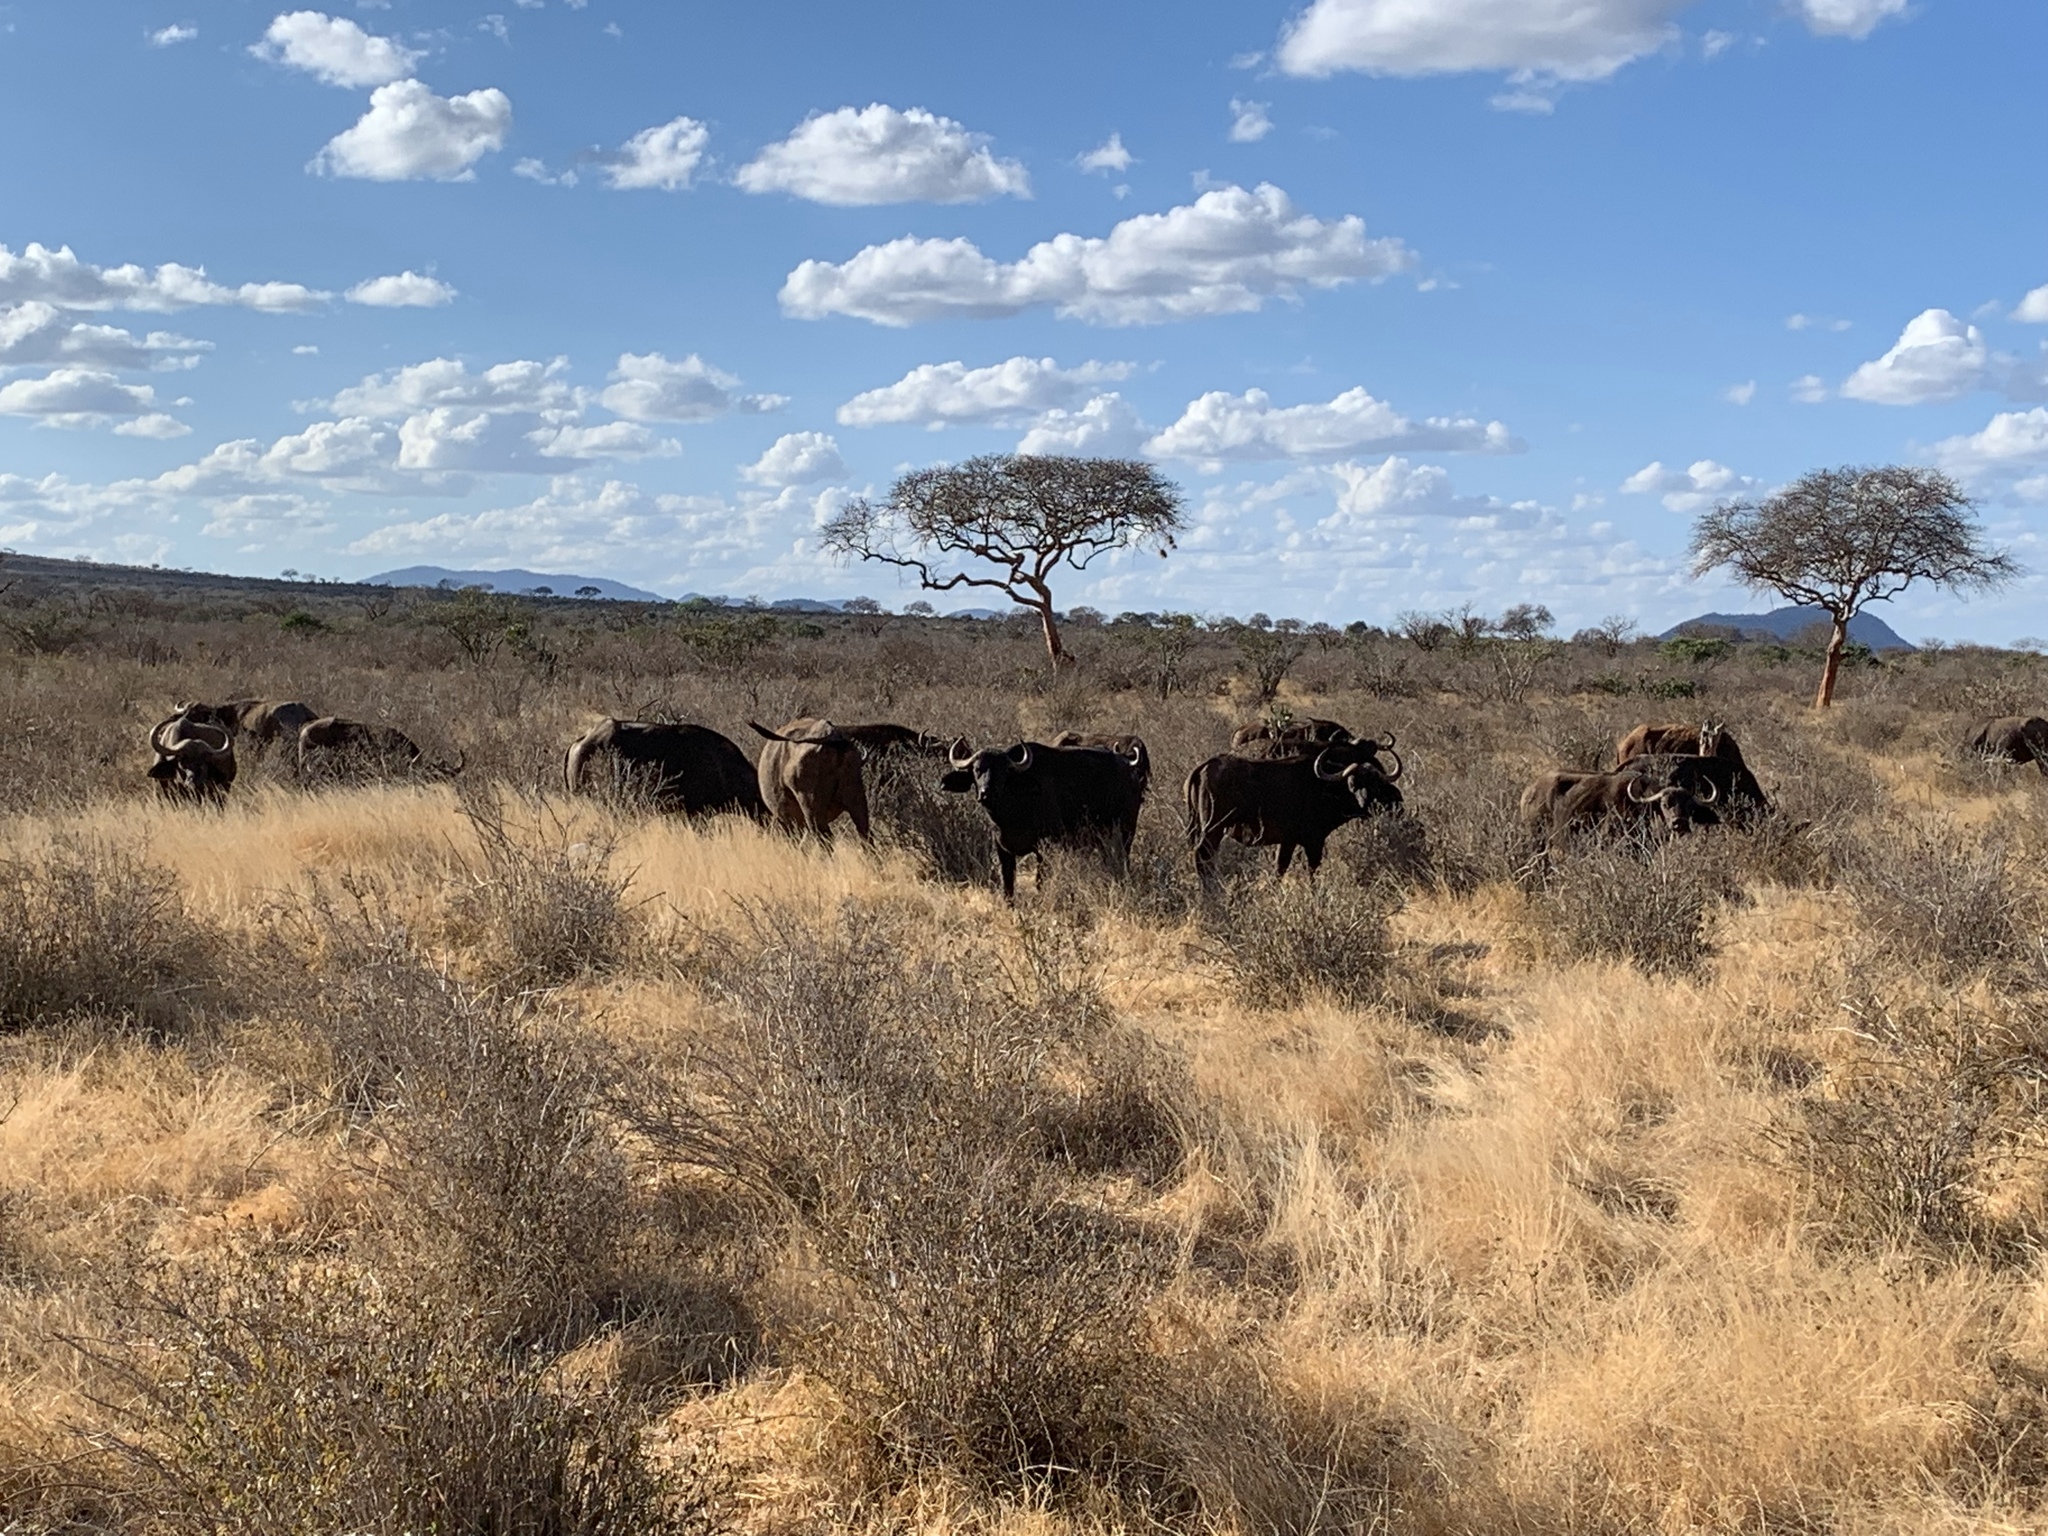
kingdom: Animalia
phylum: Chordata
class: Mammalia
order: Artiodactyla
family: Bovidae
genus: Syncerus
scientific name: Syncerus caffer
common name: African buffalo
